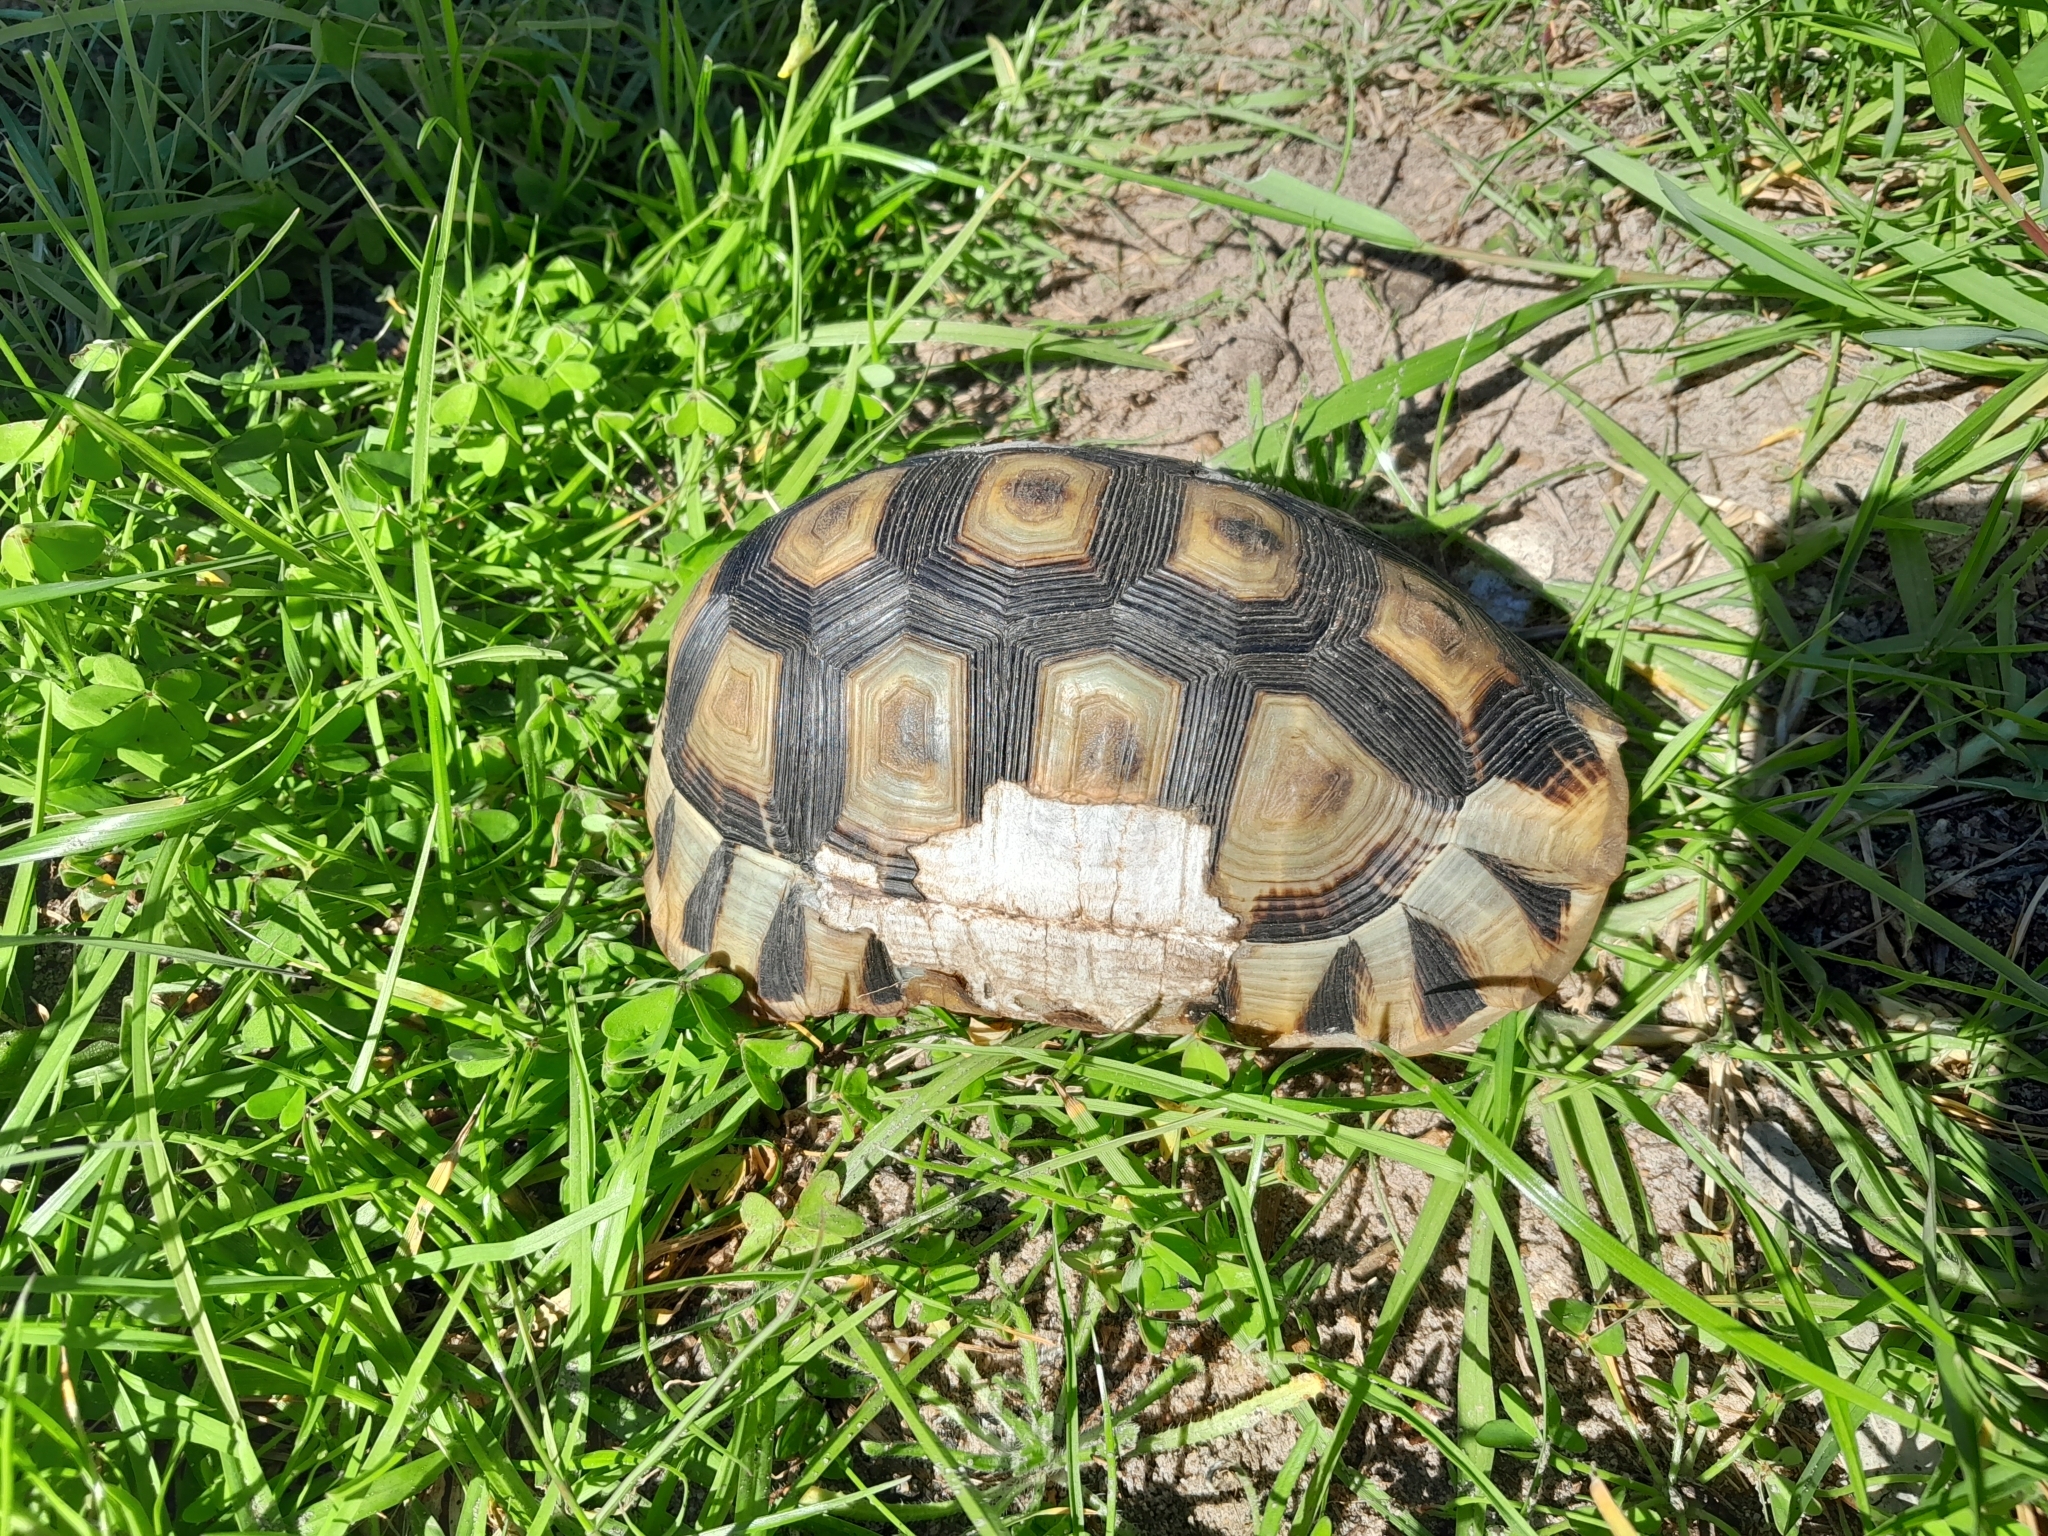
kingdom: Animalia
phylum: Chordata
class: Testudines
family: Testudinidae
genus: Chersina
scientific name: Chersina angulata
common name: South african bowsprit tortoise
